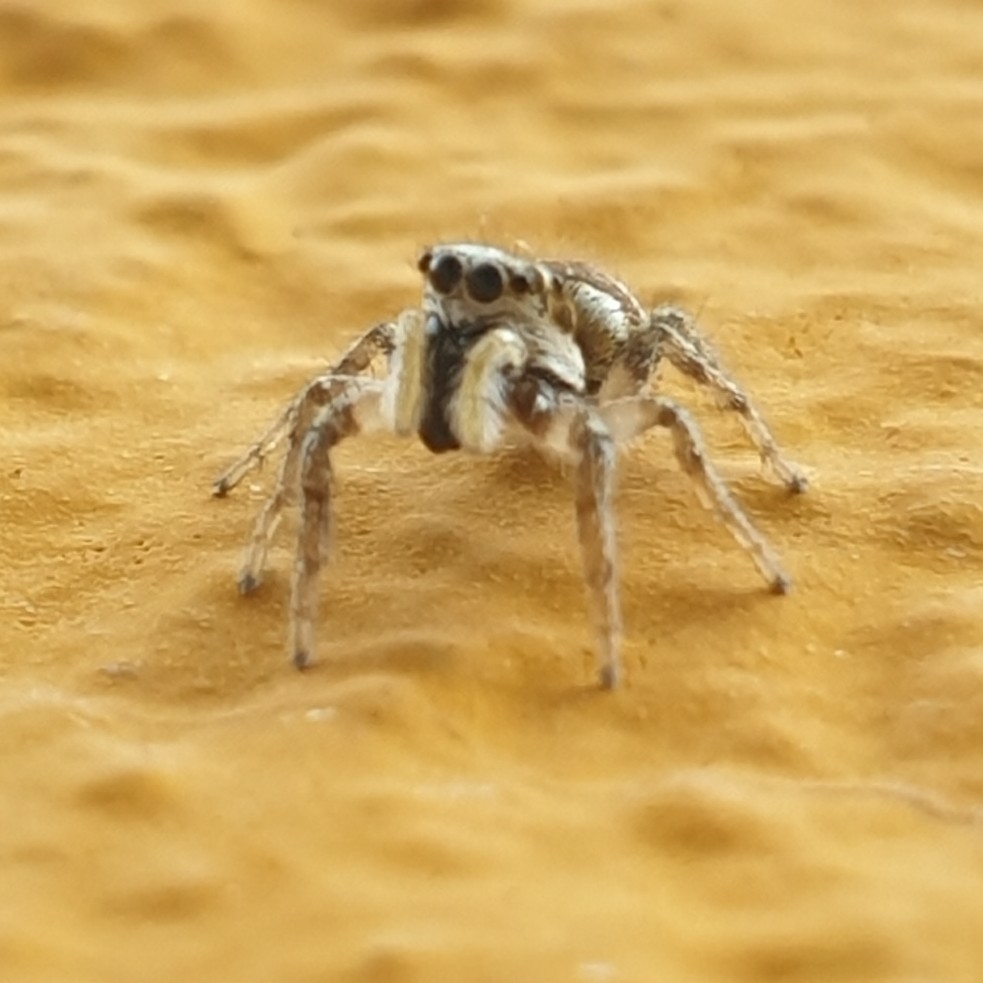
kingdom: Animalia
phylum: Arthropoda
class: Arachnida
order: Araneae
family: Salticidae
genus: Salticus
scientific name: Salticus scenicus
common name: Zebra jumper
